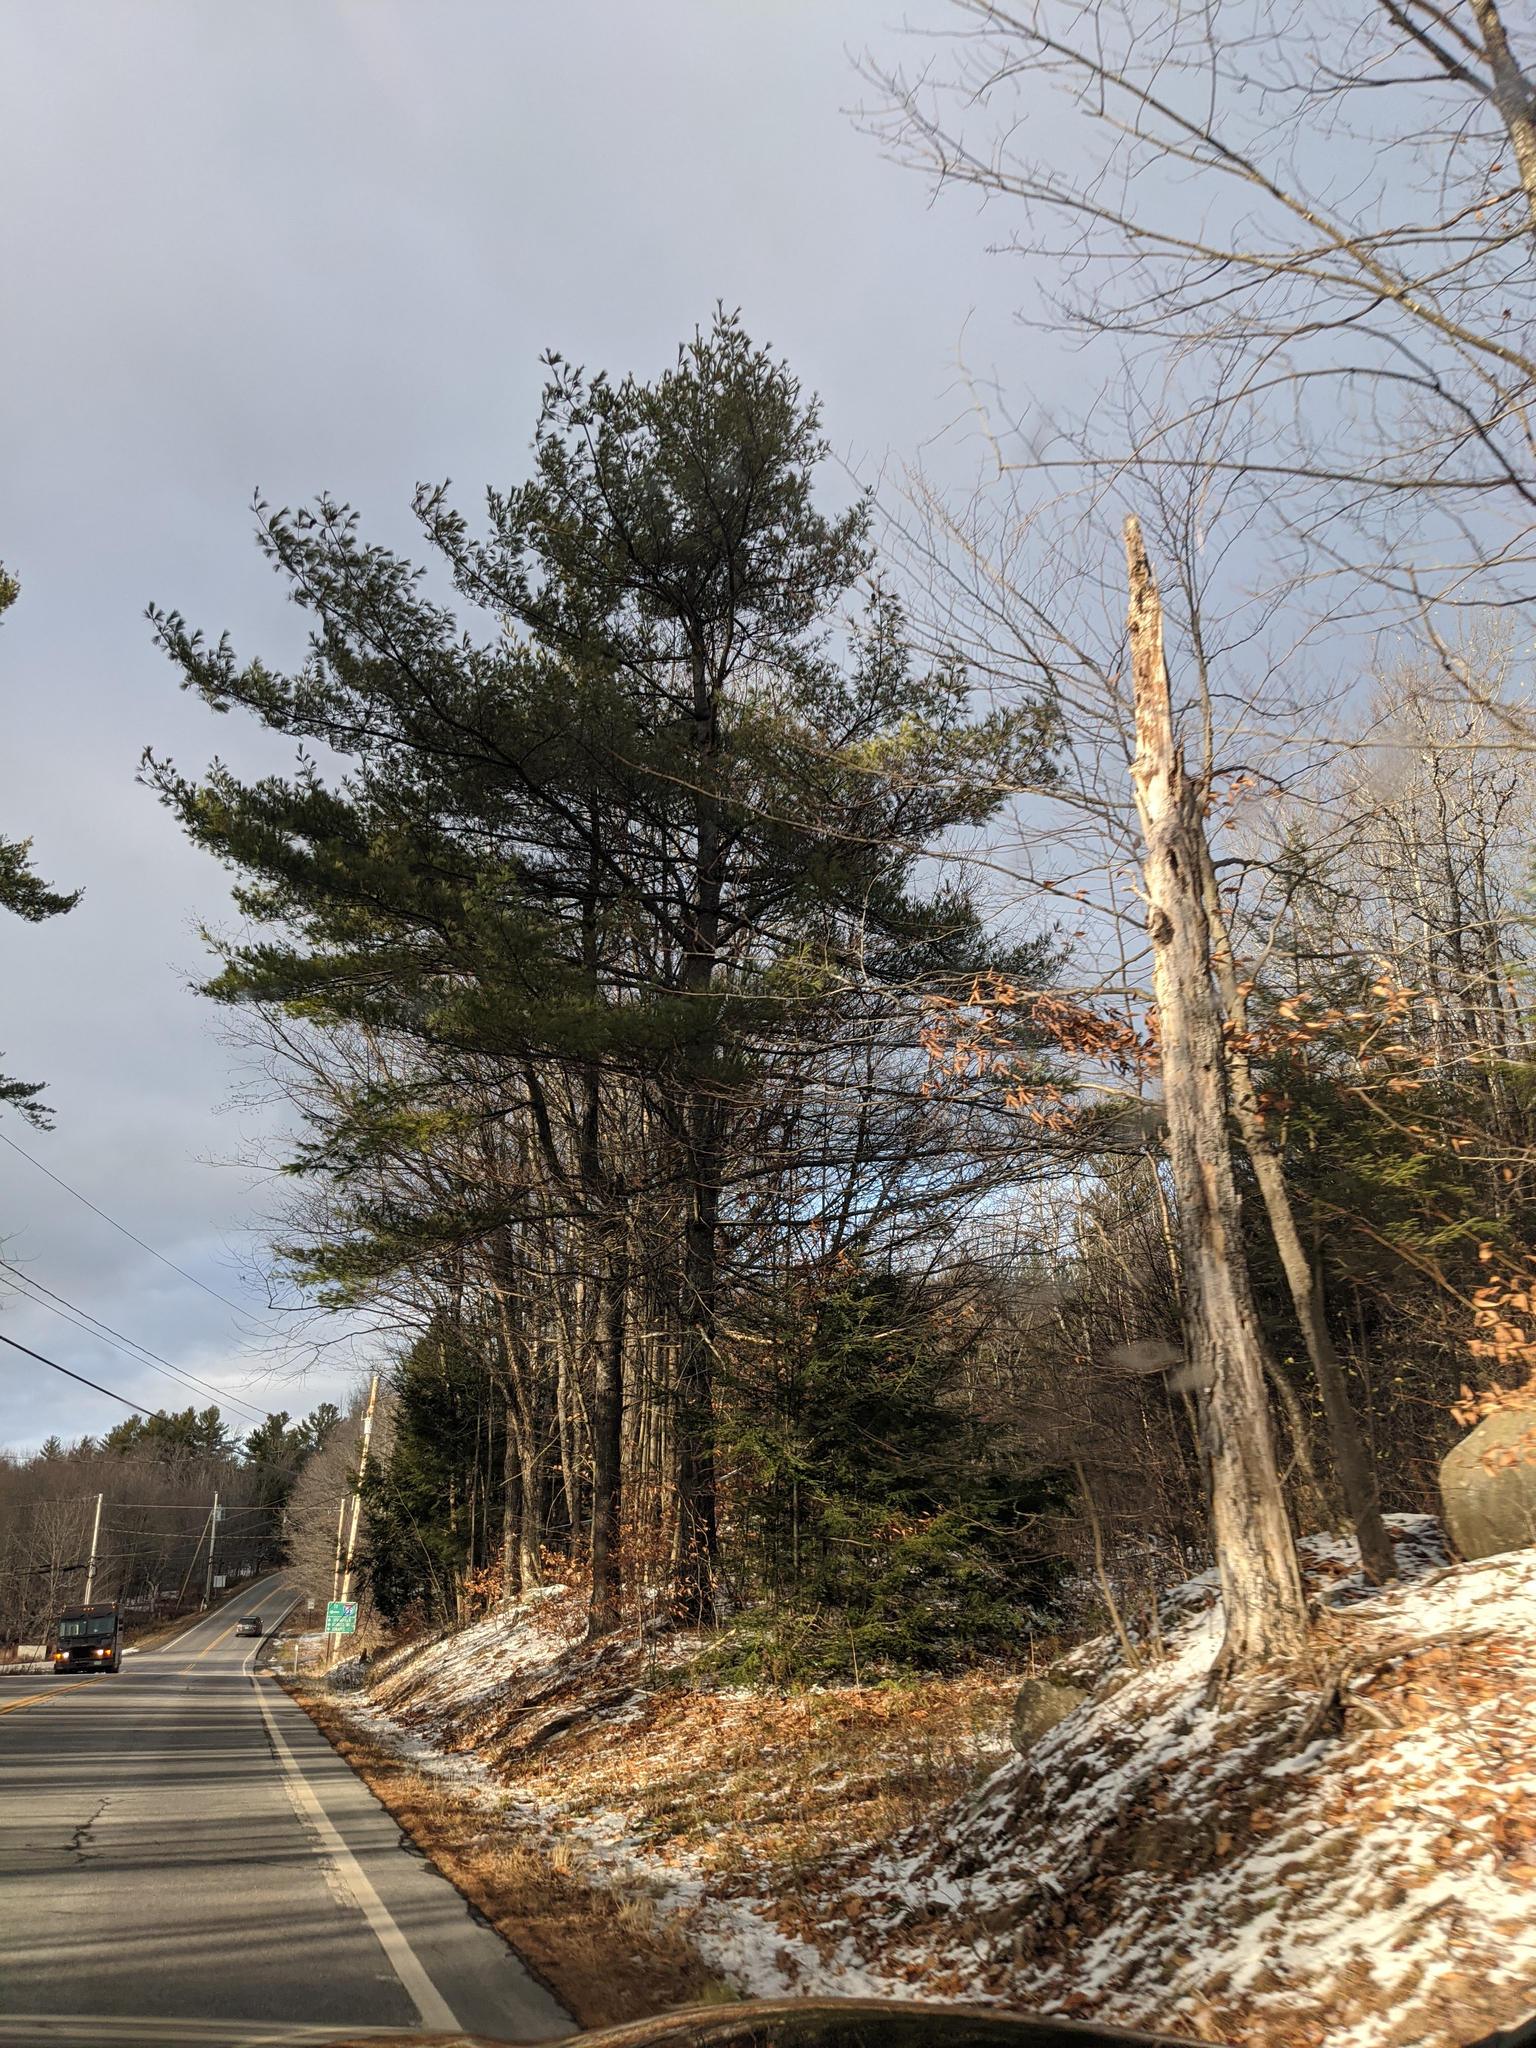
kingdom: Plantae
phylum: Tracheophyta
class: Pinopsida
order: Pinales
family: Pinaceae
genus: Pinus
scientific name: Pinus strobus
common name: Weymouth pine
